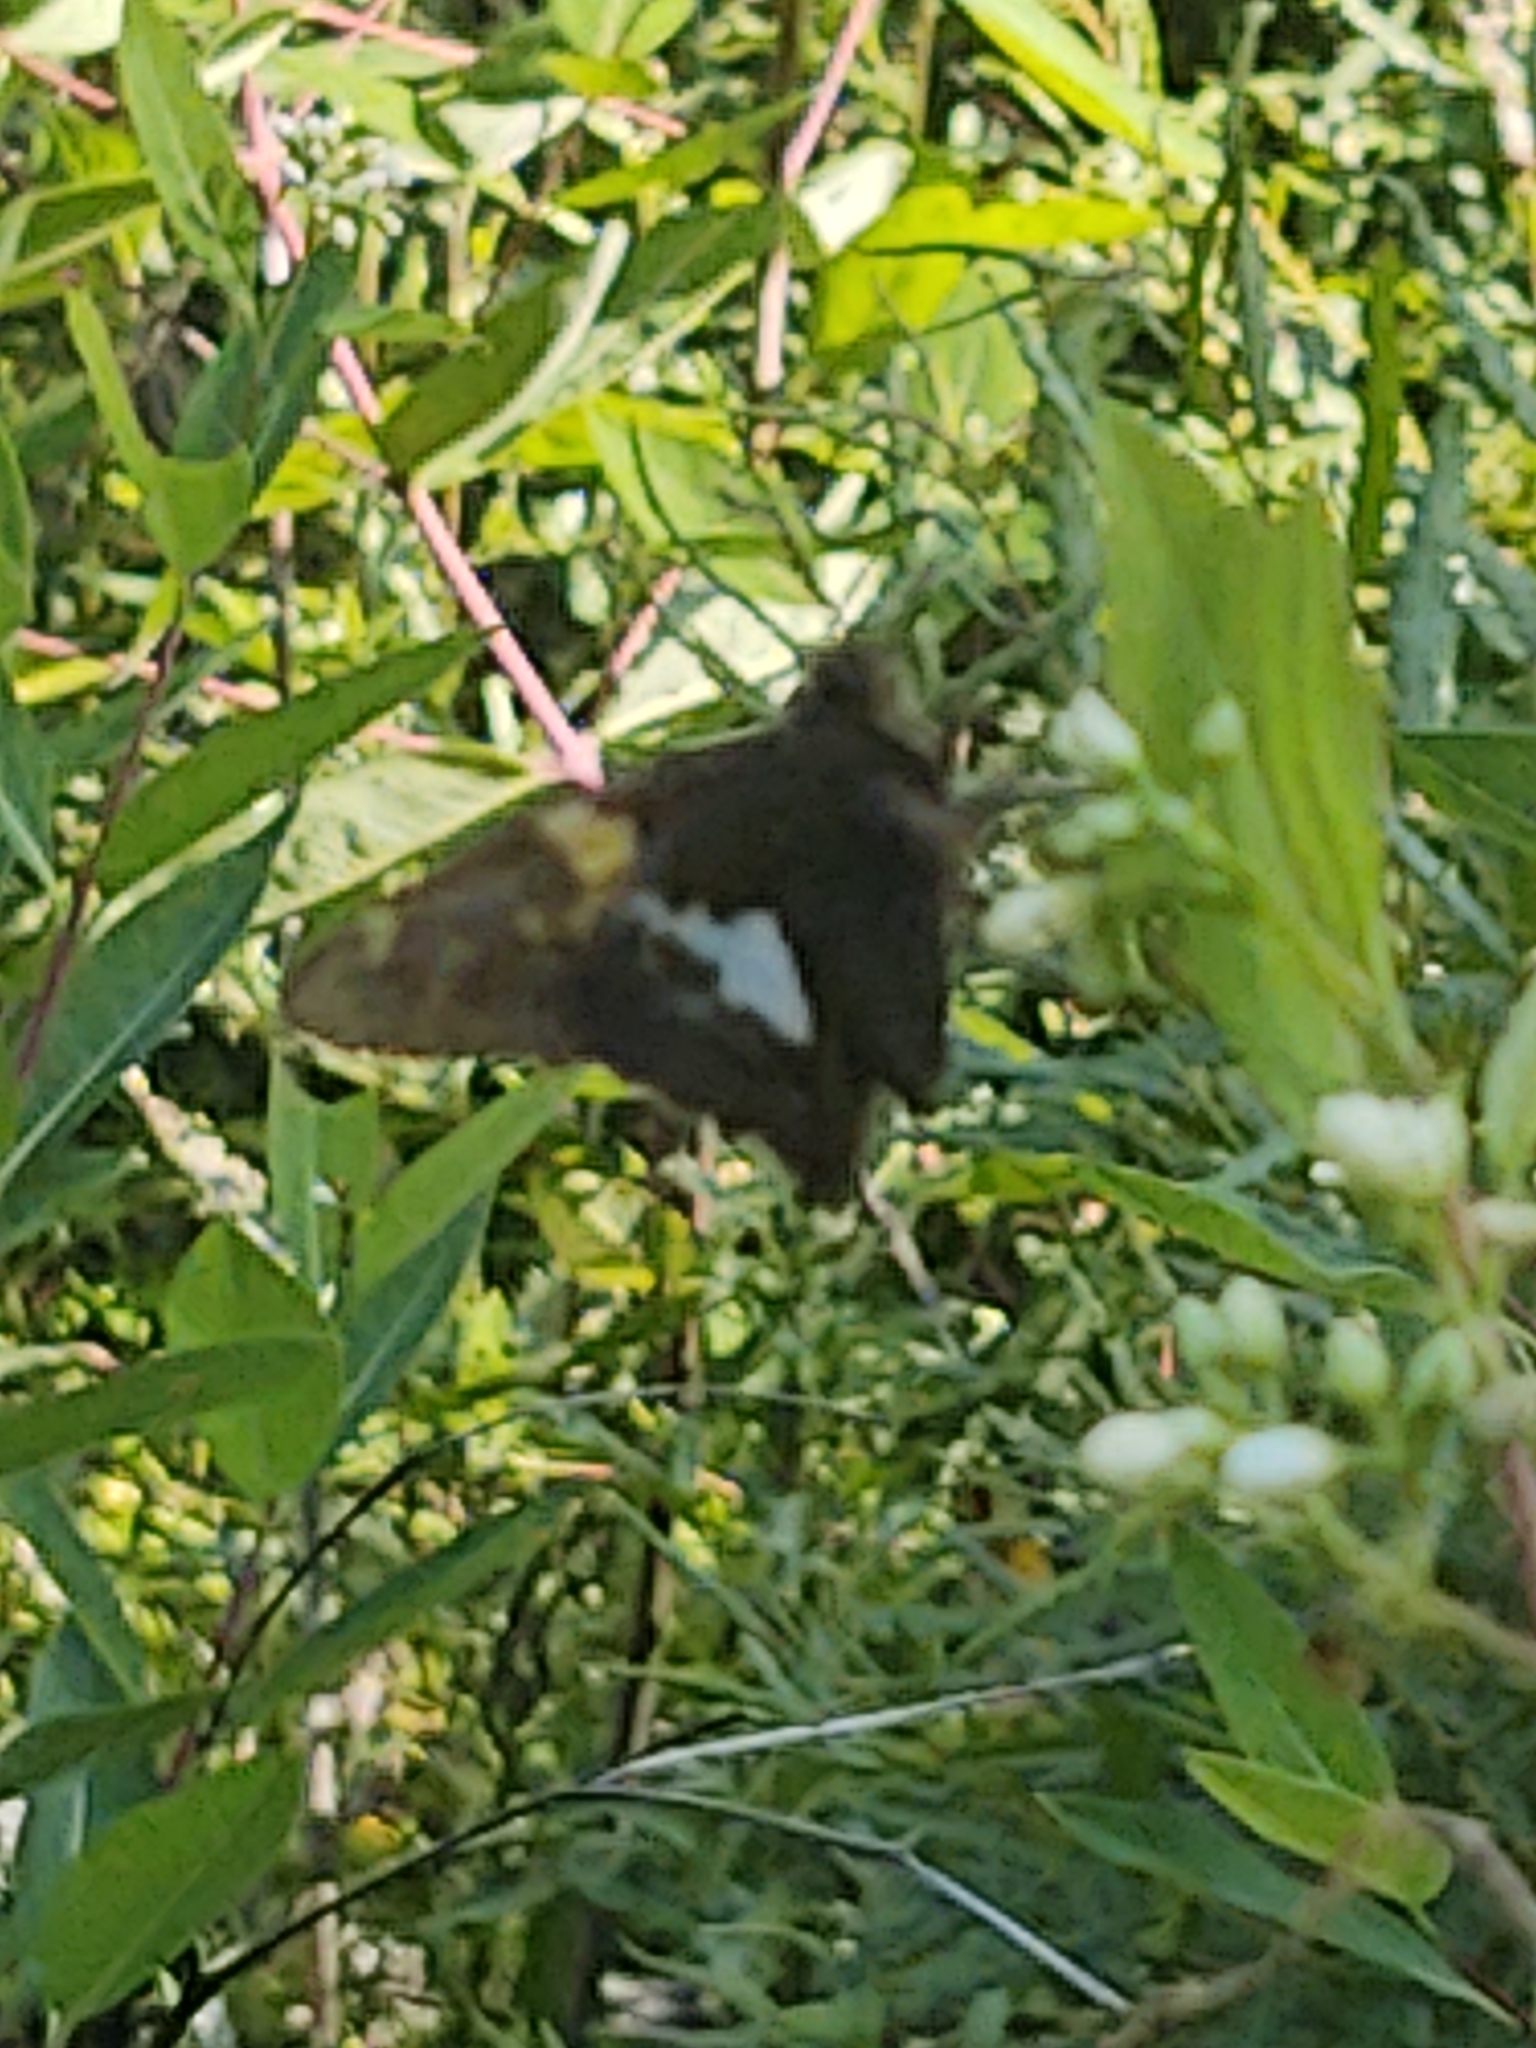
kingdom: Animalia
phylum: Arthropoda
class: Insecta
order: Lepidoptera
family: Hesperiidae
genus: Epargyreus
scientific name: Epargyreus clarus
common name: Silver-spotted skipper
